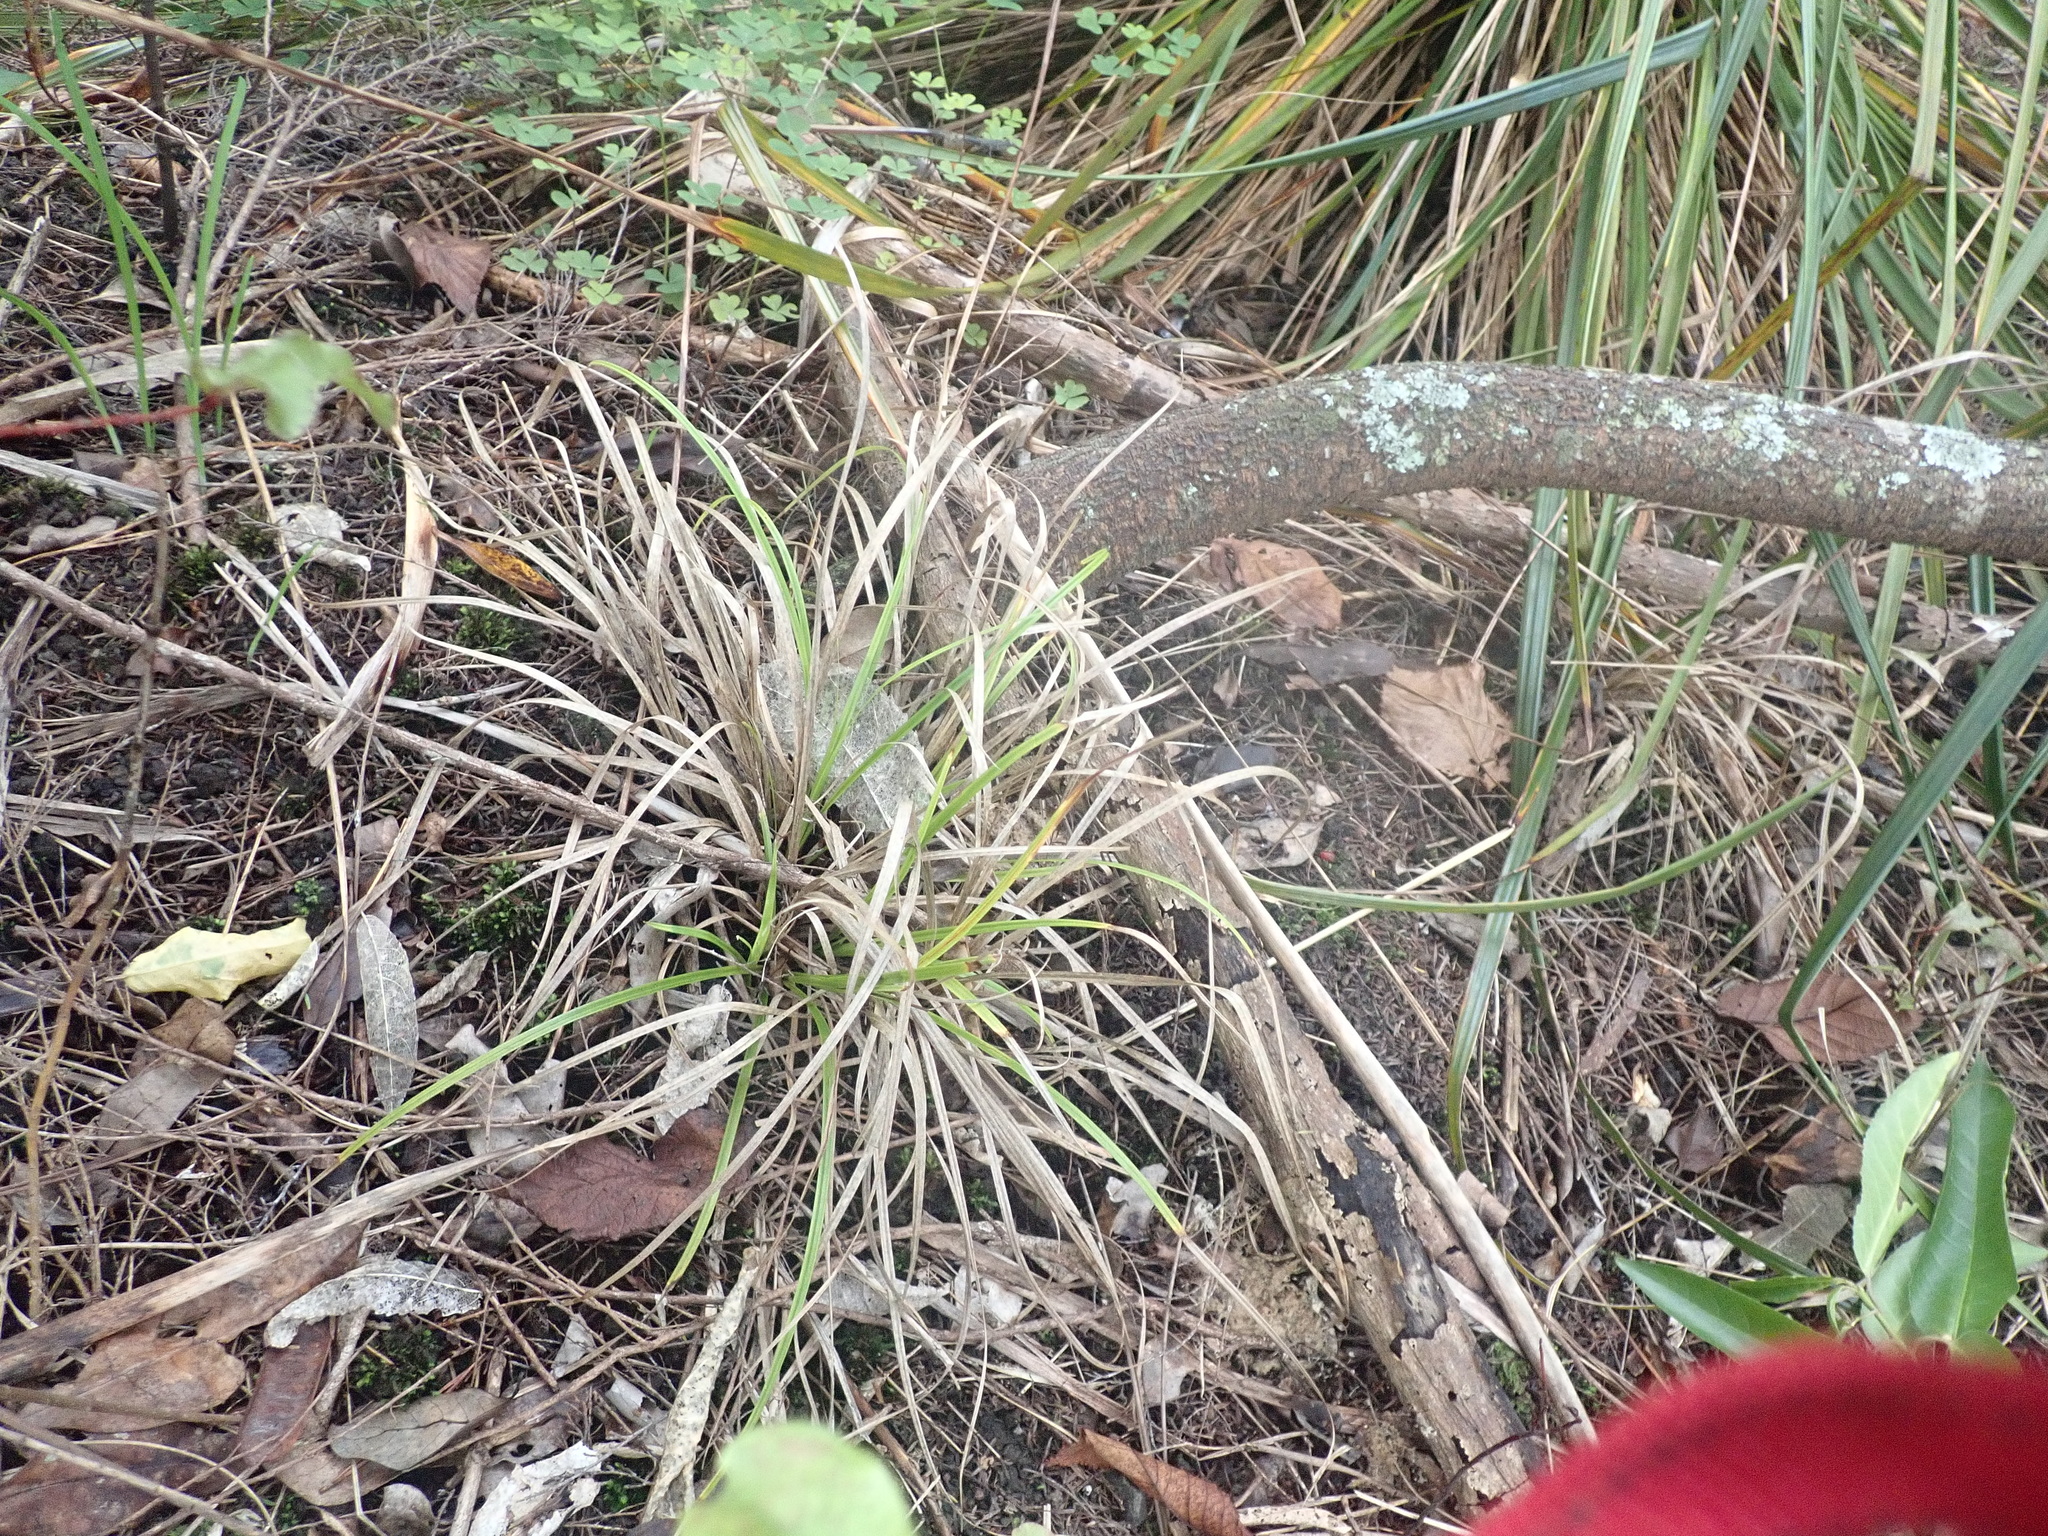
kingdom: Plantae
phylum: Tracheophyta
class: Liliopsida
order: Poales
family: Cyperaceae
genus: Carex
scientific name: Carex uncinata
